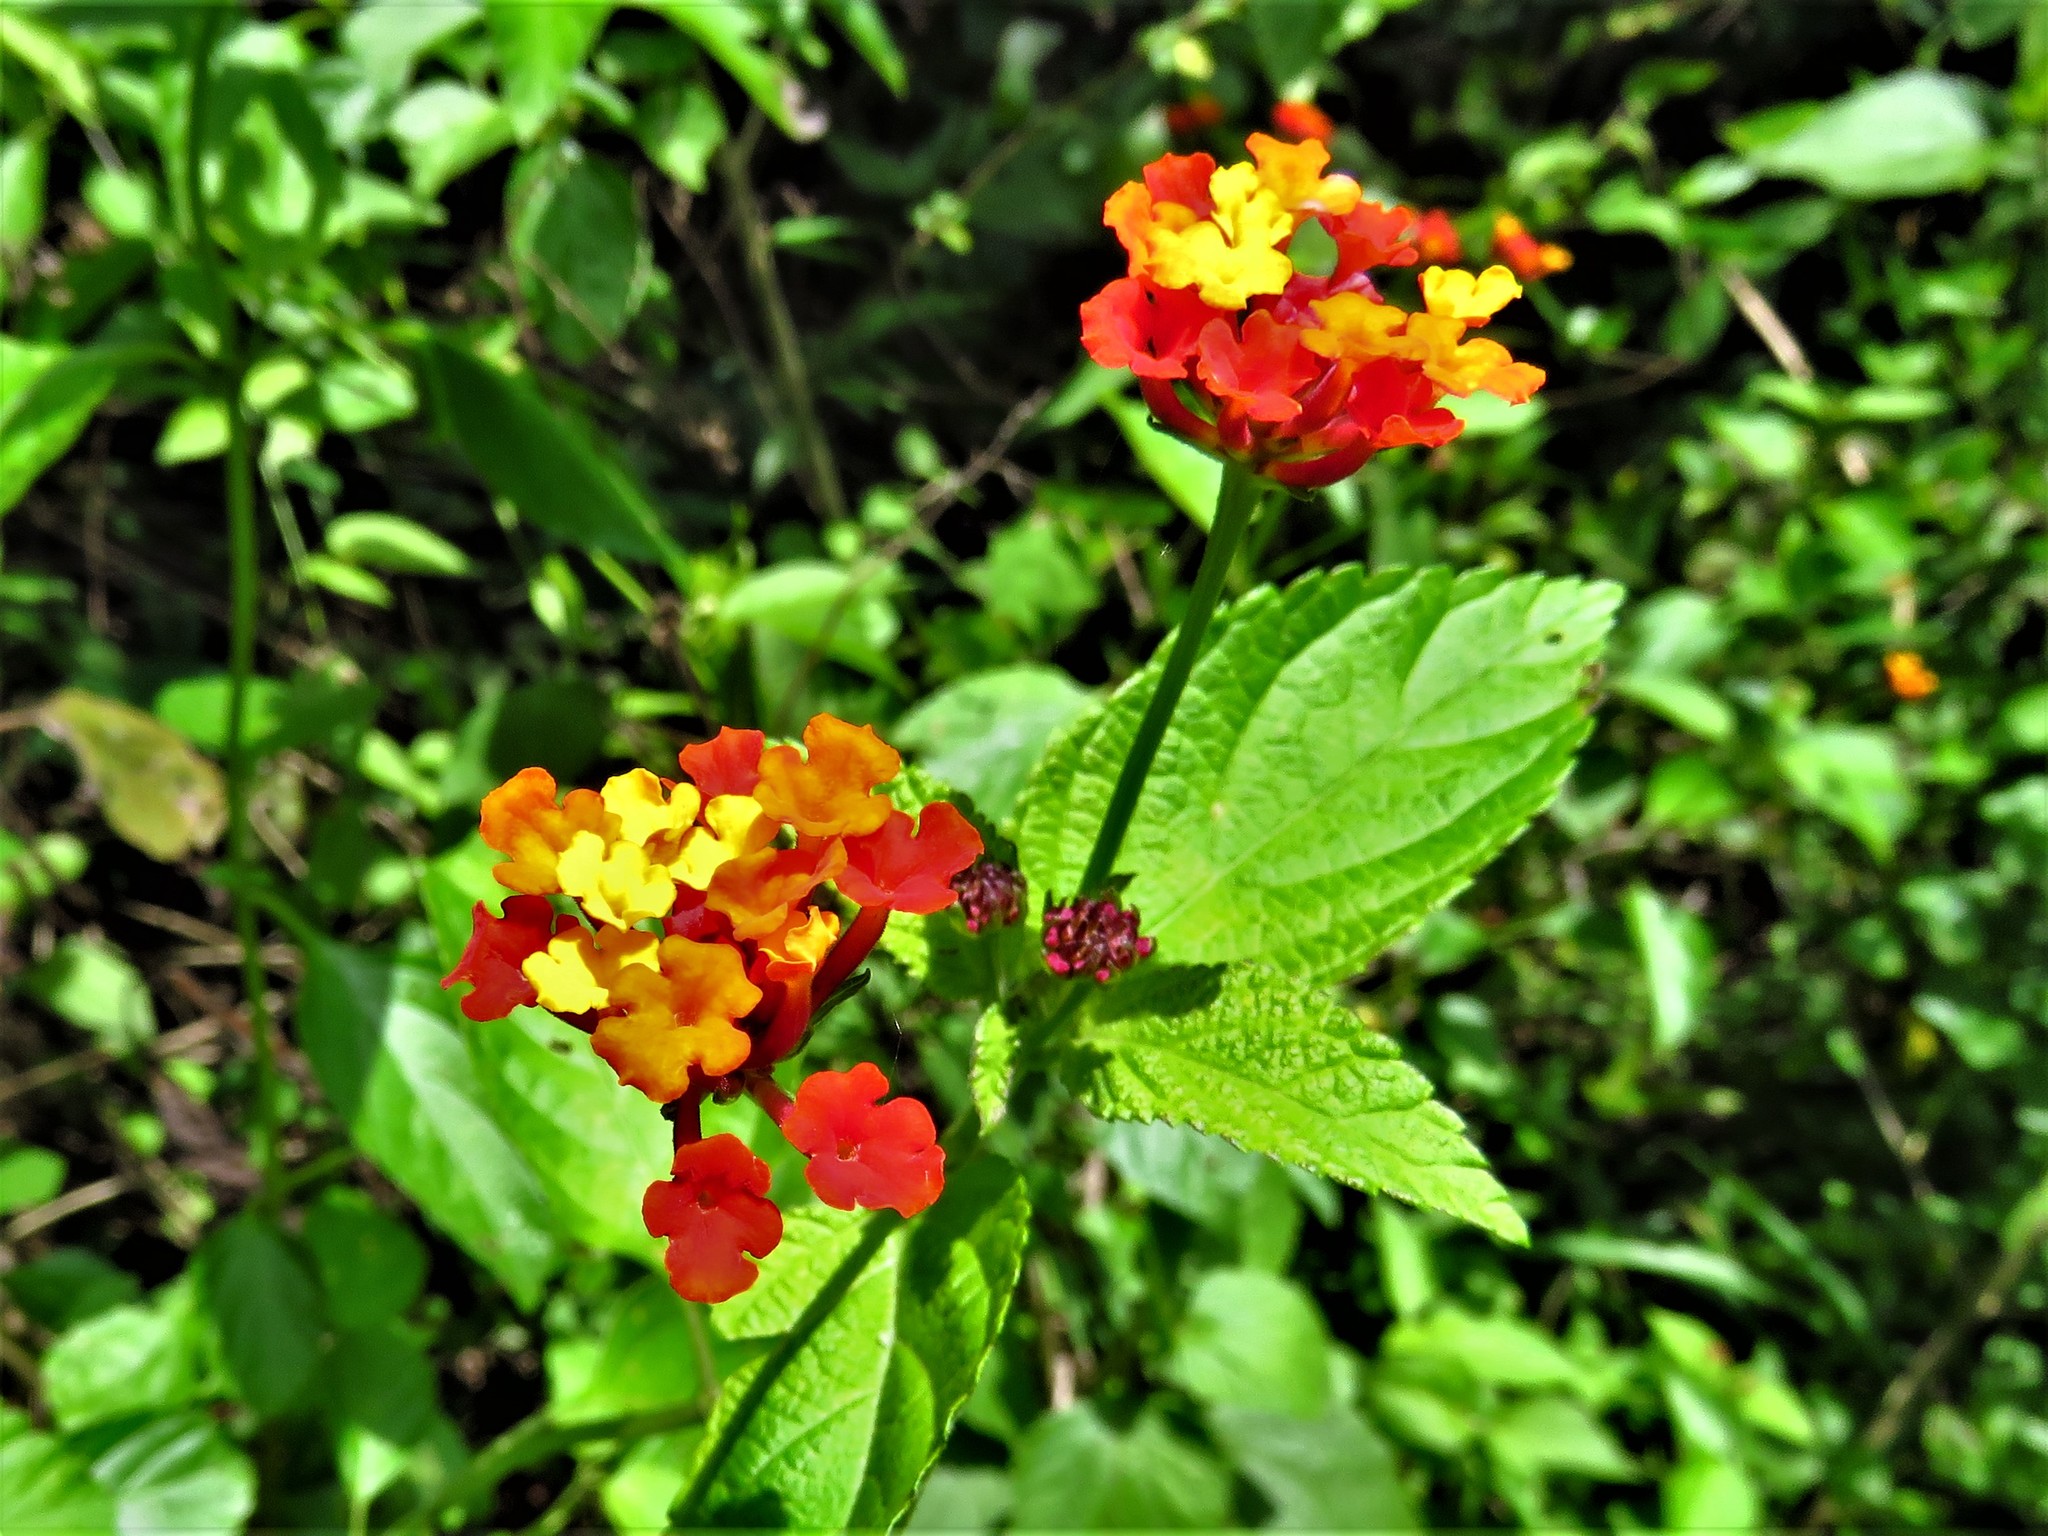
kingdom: Plantae
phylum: Tracheophyta
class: Magnoliopsida
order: Lamiales
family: Verbenaceae
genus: Lantana
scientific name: Lantana camara
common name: Lantana
